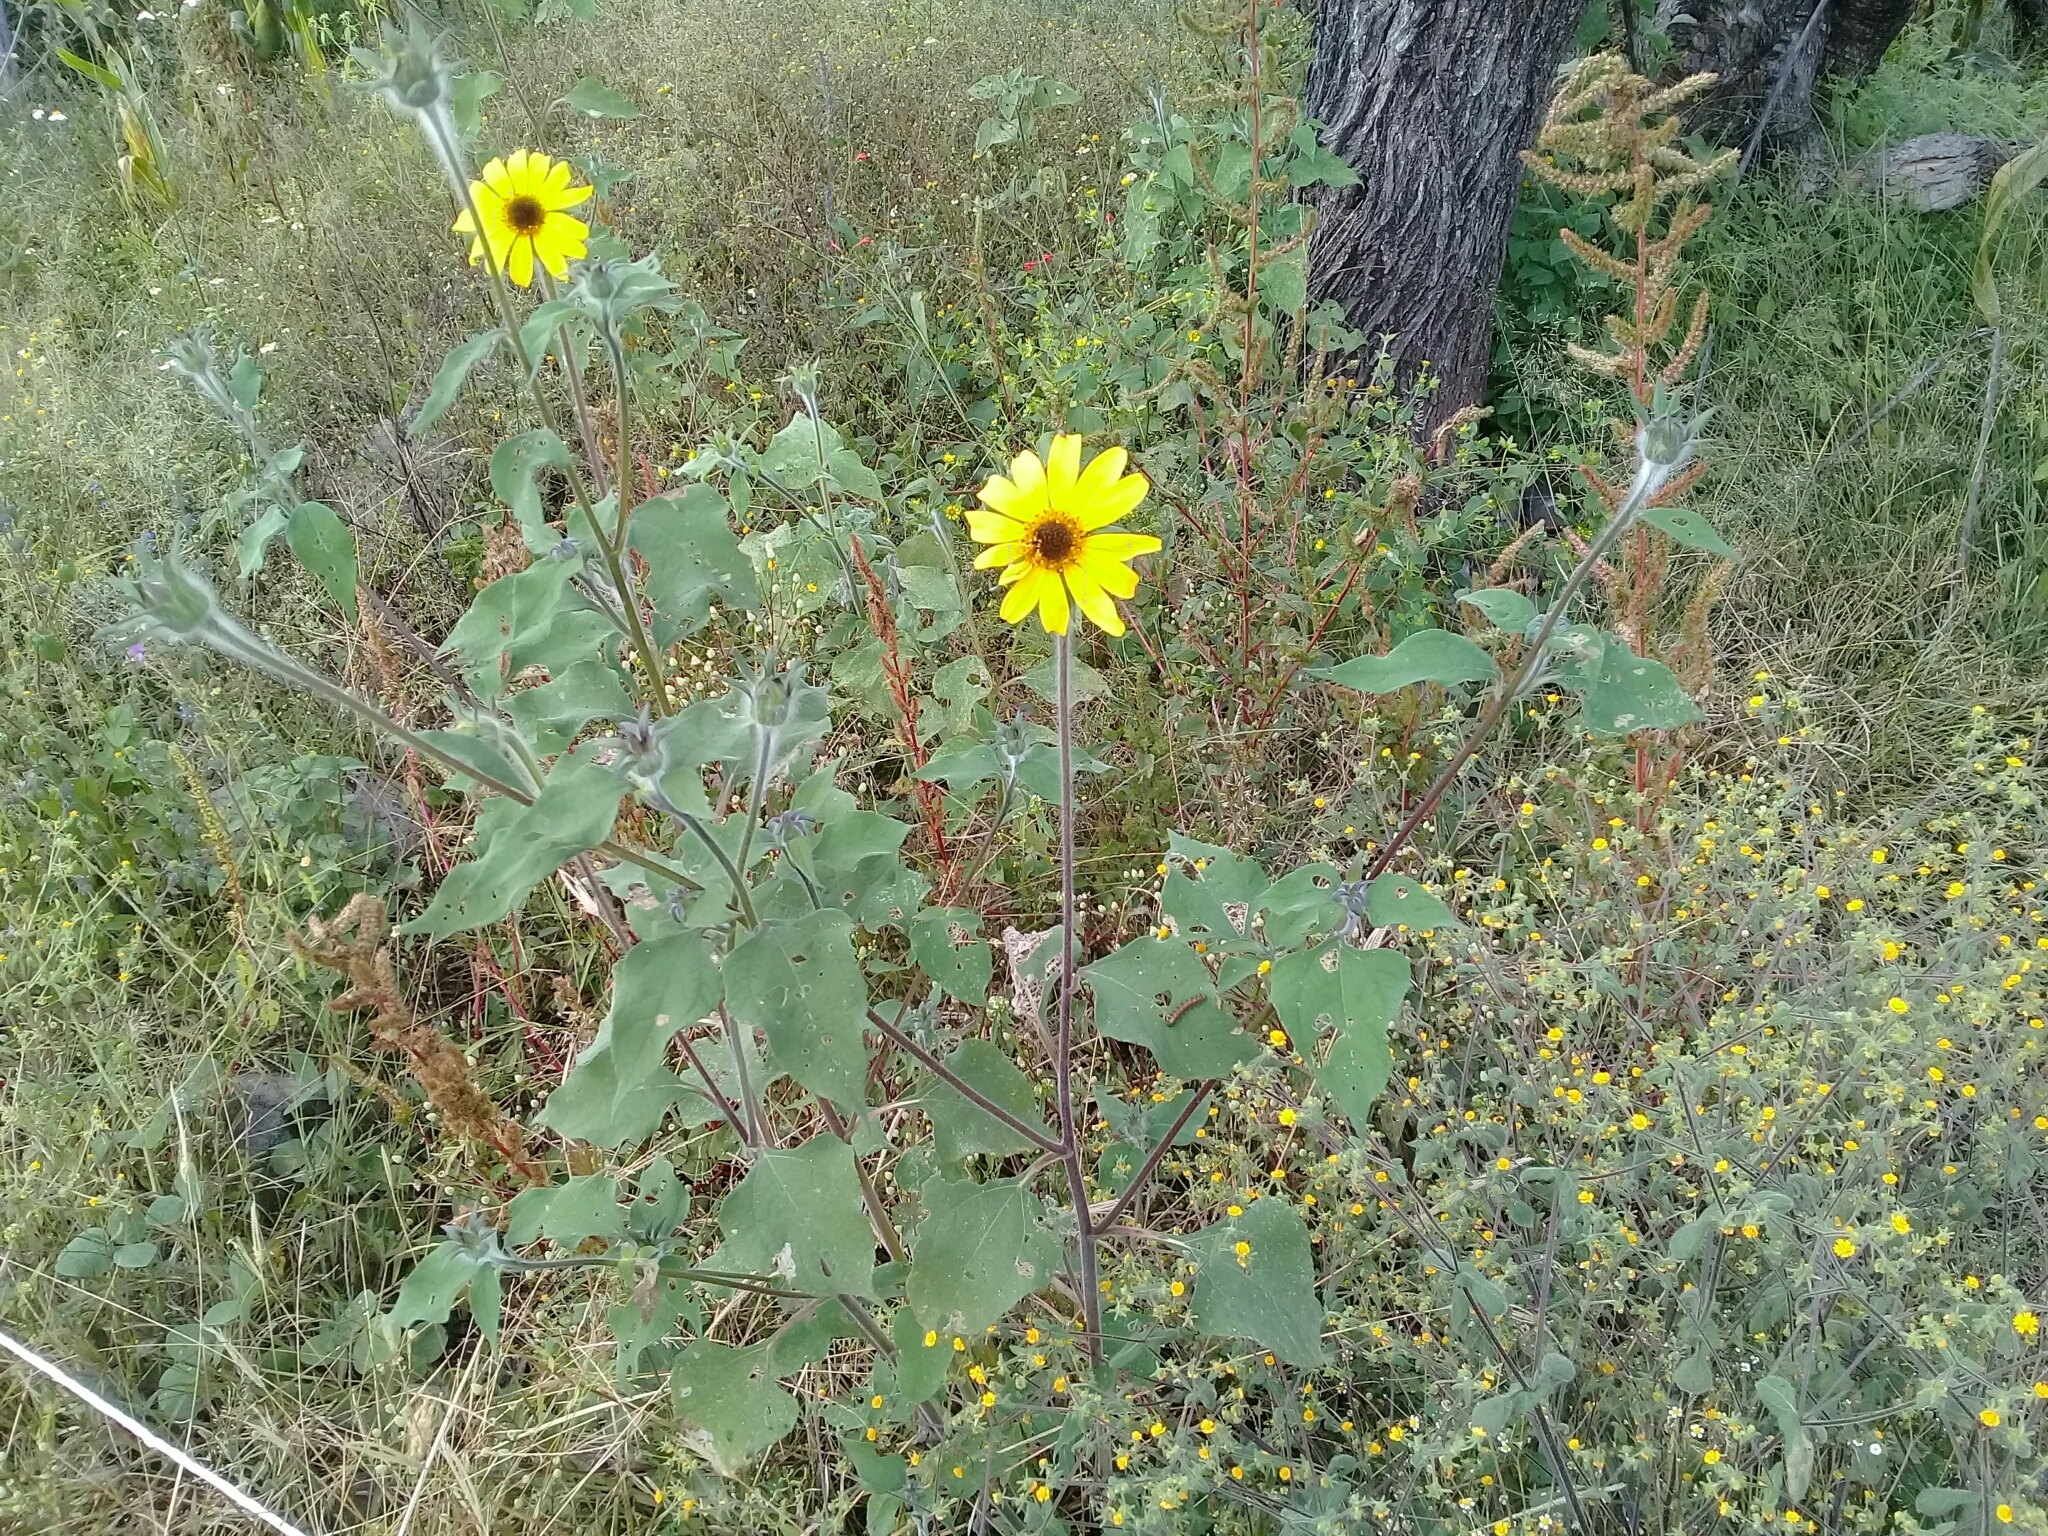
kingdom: Plantae
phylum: Tracheophyta
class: Magnoliopsida
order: Asterales
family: Asteraceae
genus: Tithonia
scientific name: Tithonia tubaeformis
